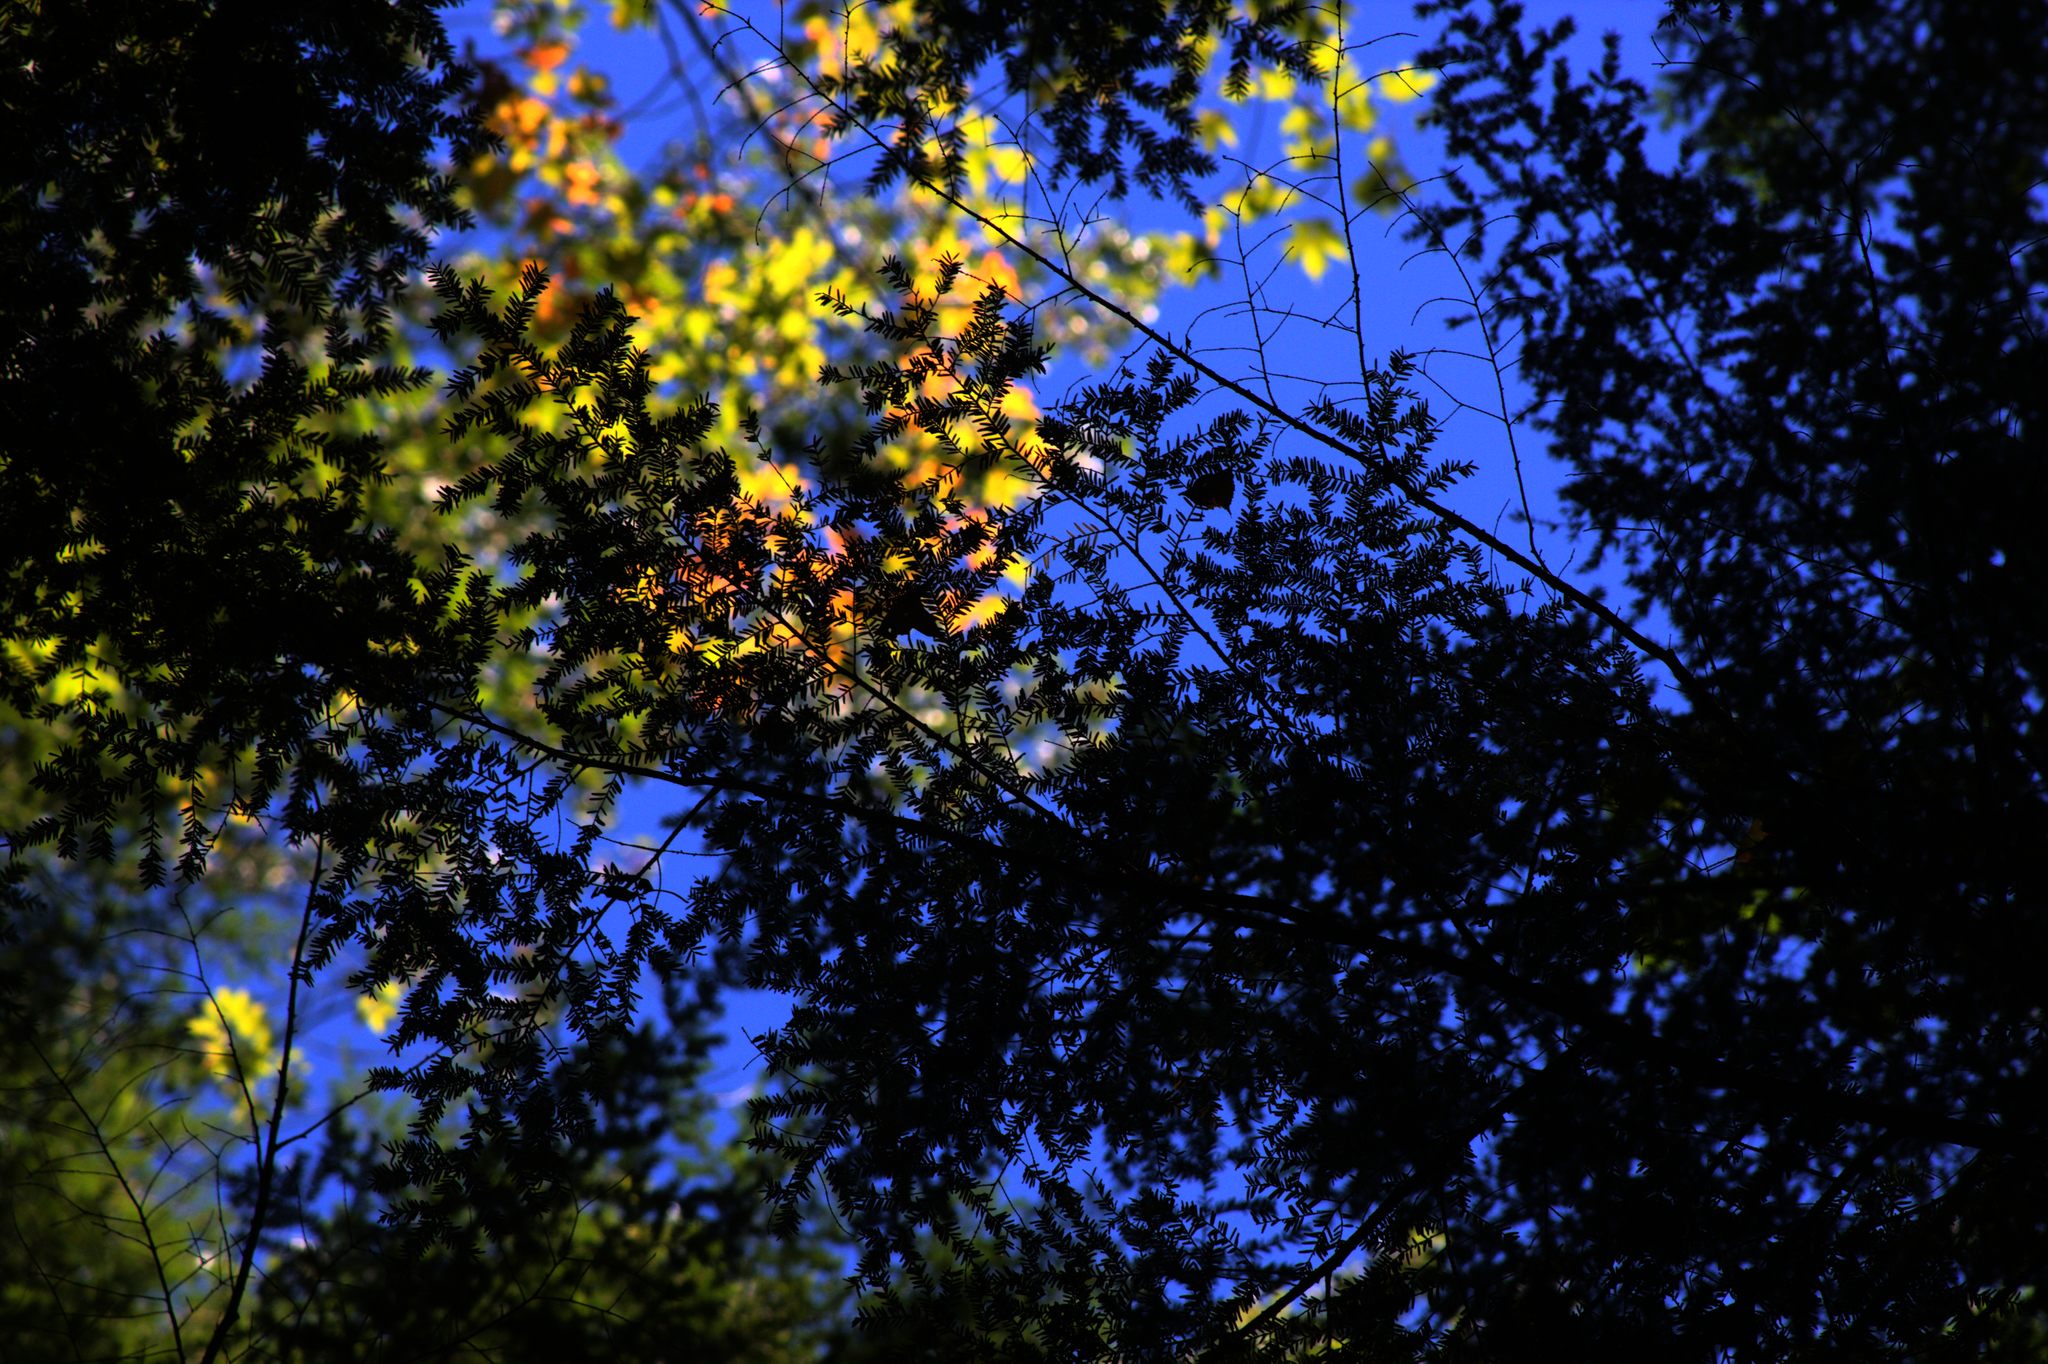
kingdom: Plantae
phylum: Tracheophyta
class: Pinopsida
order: Pinales
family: Pinaceae
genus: Tsuga
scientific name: Tsuga canadensis
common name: Eastern hemlock
